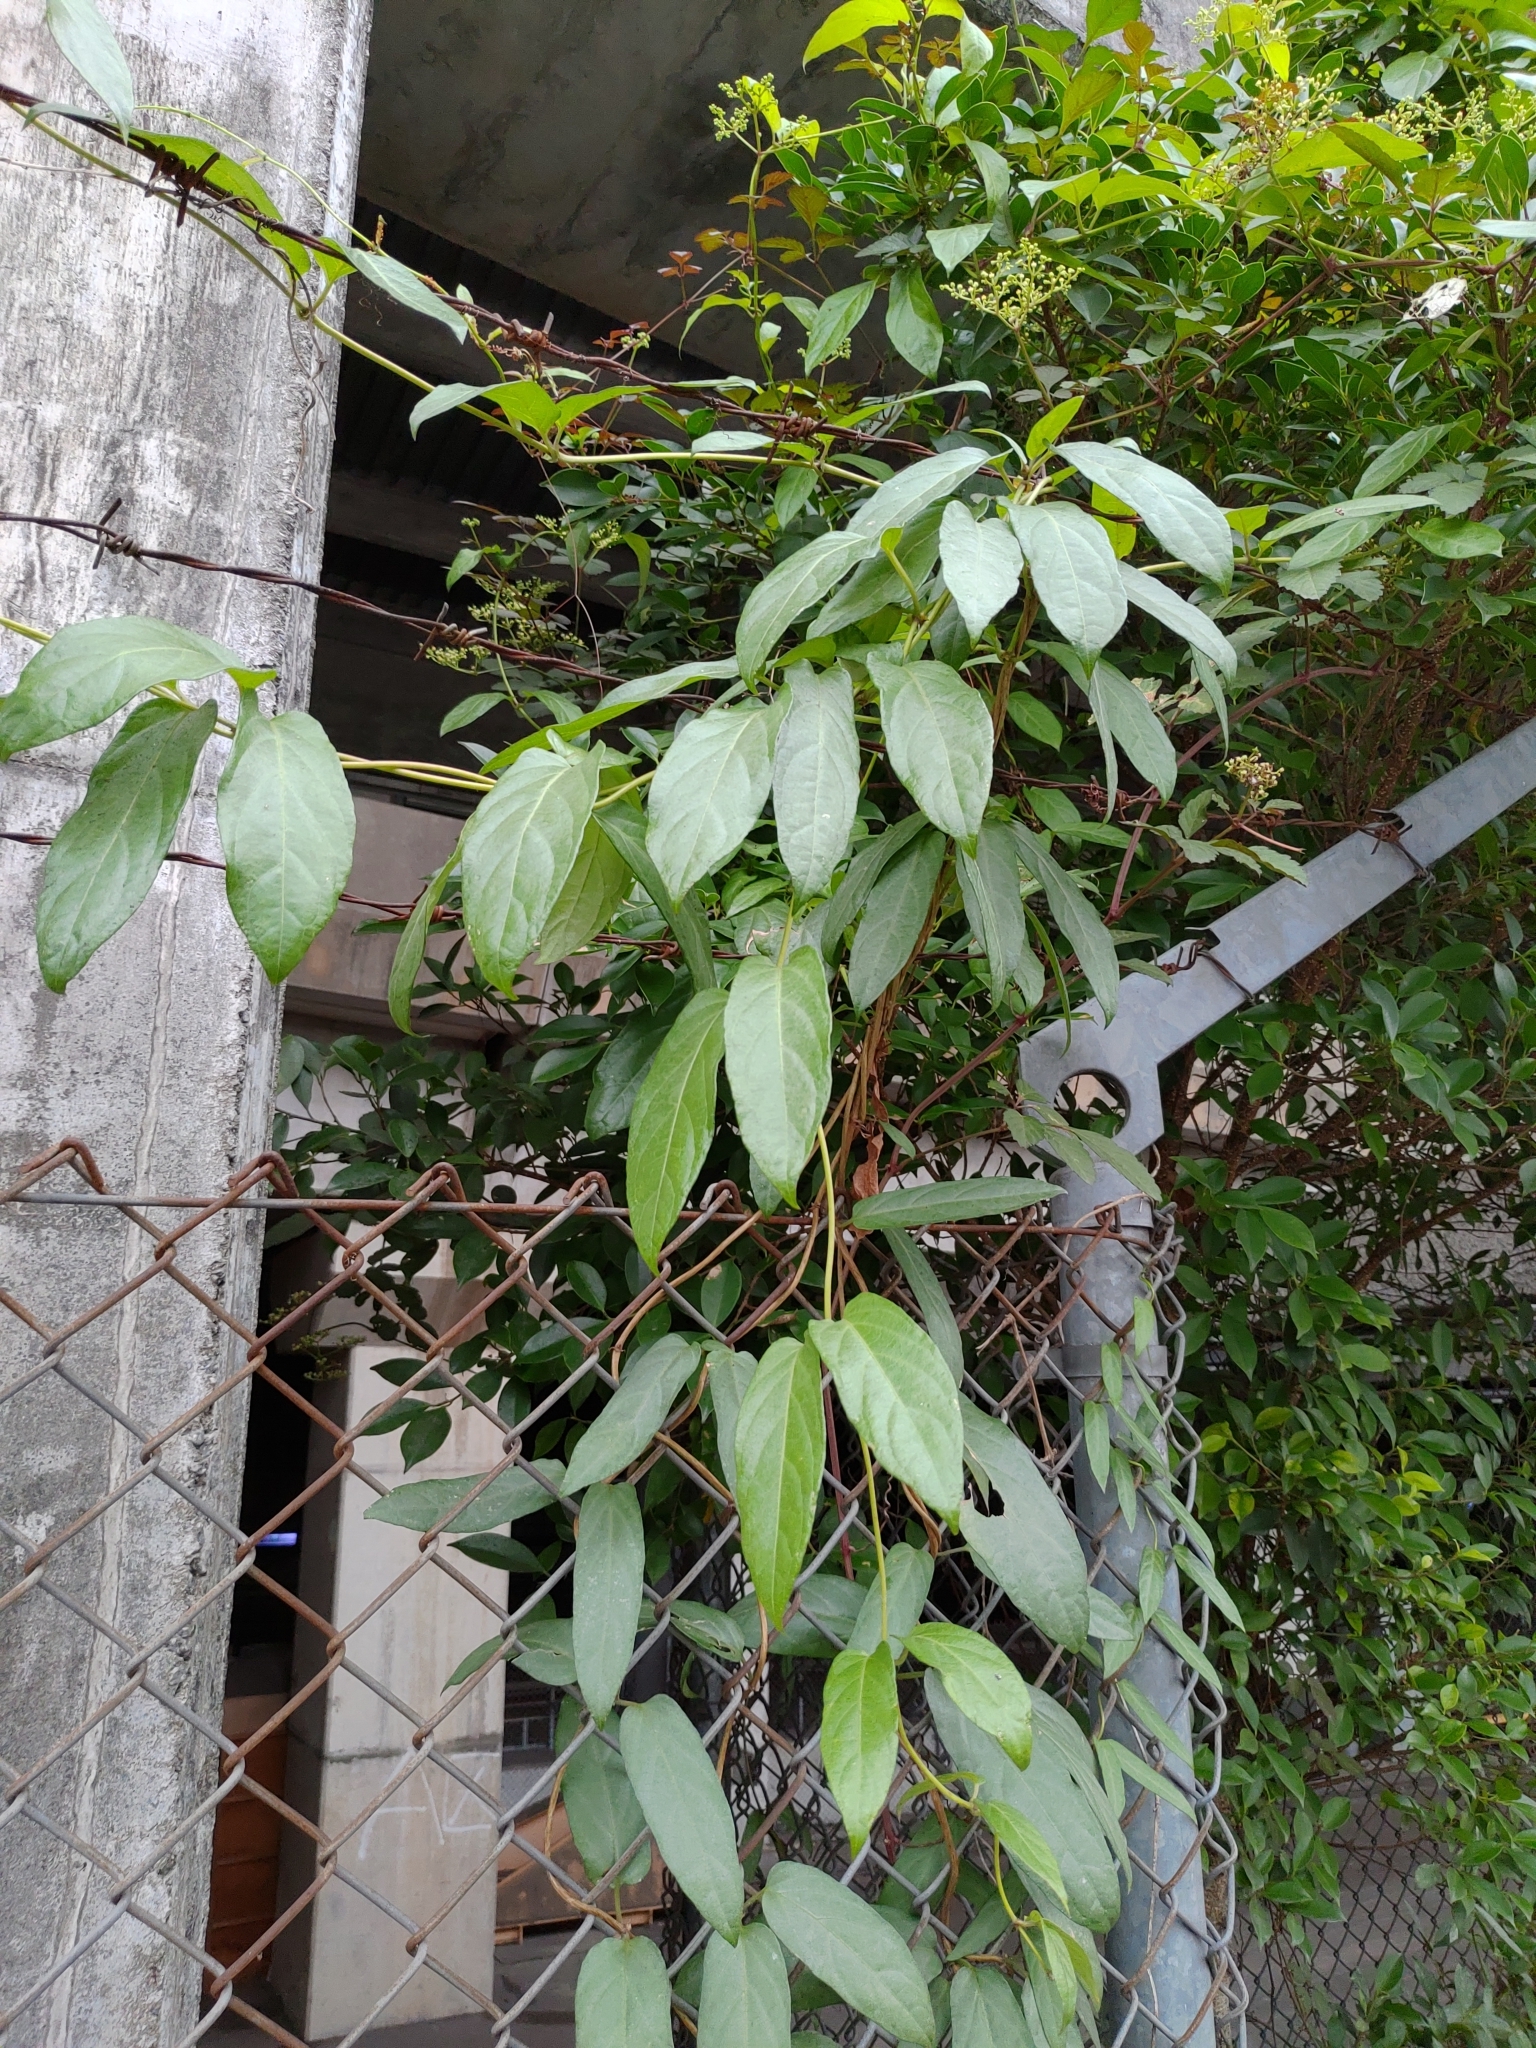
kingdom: Plantae
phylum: Tracheophyta
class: Magnoliopsida
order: Gentianales
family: Rubiaceae
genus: Paederia
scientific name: Paederia foetida
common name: Stinkvine
